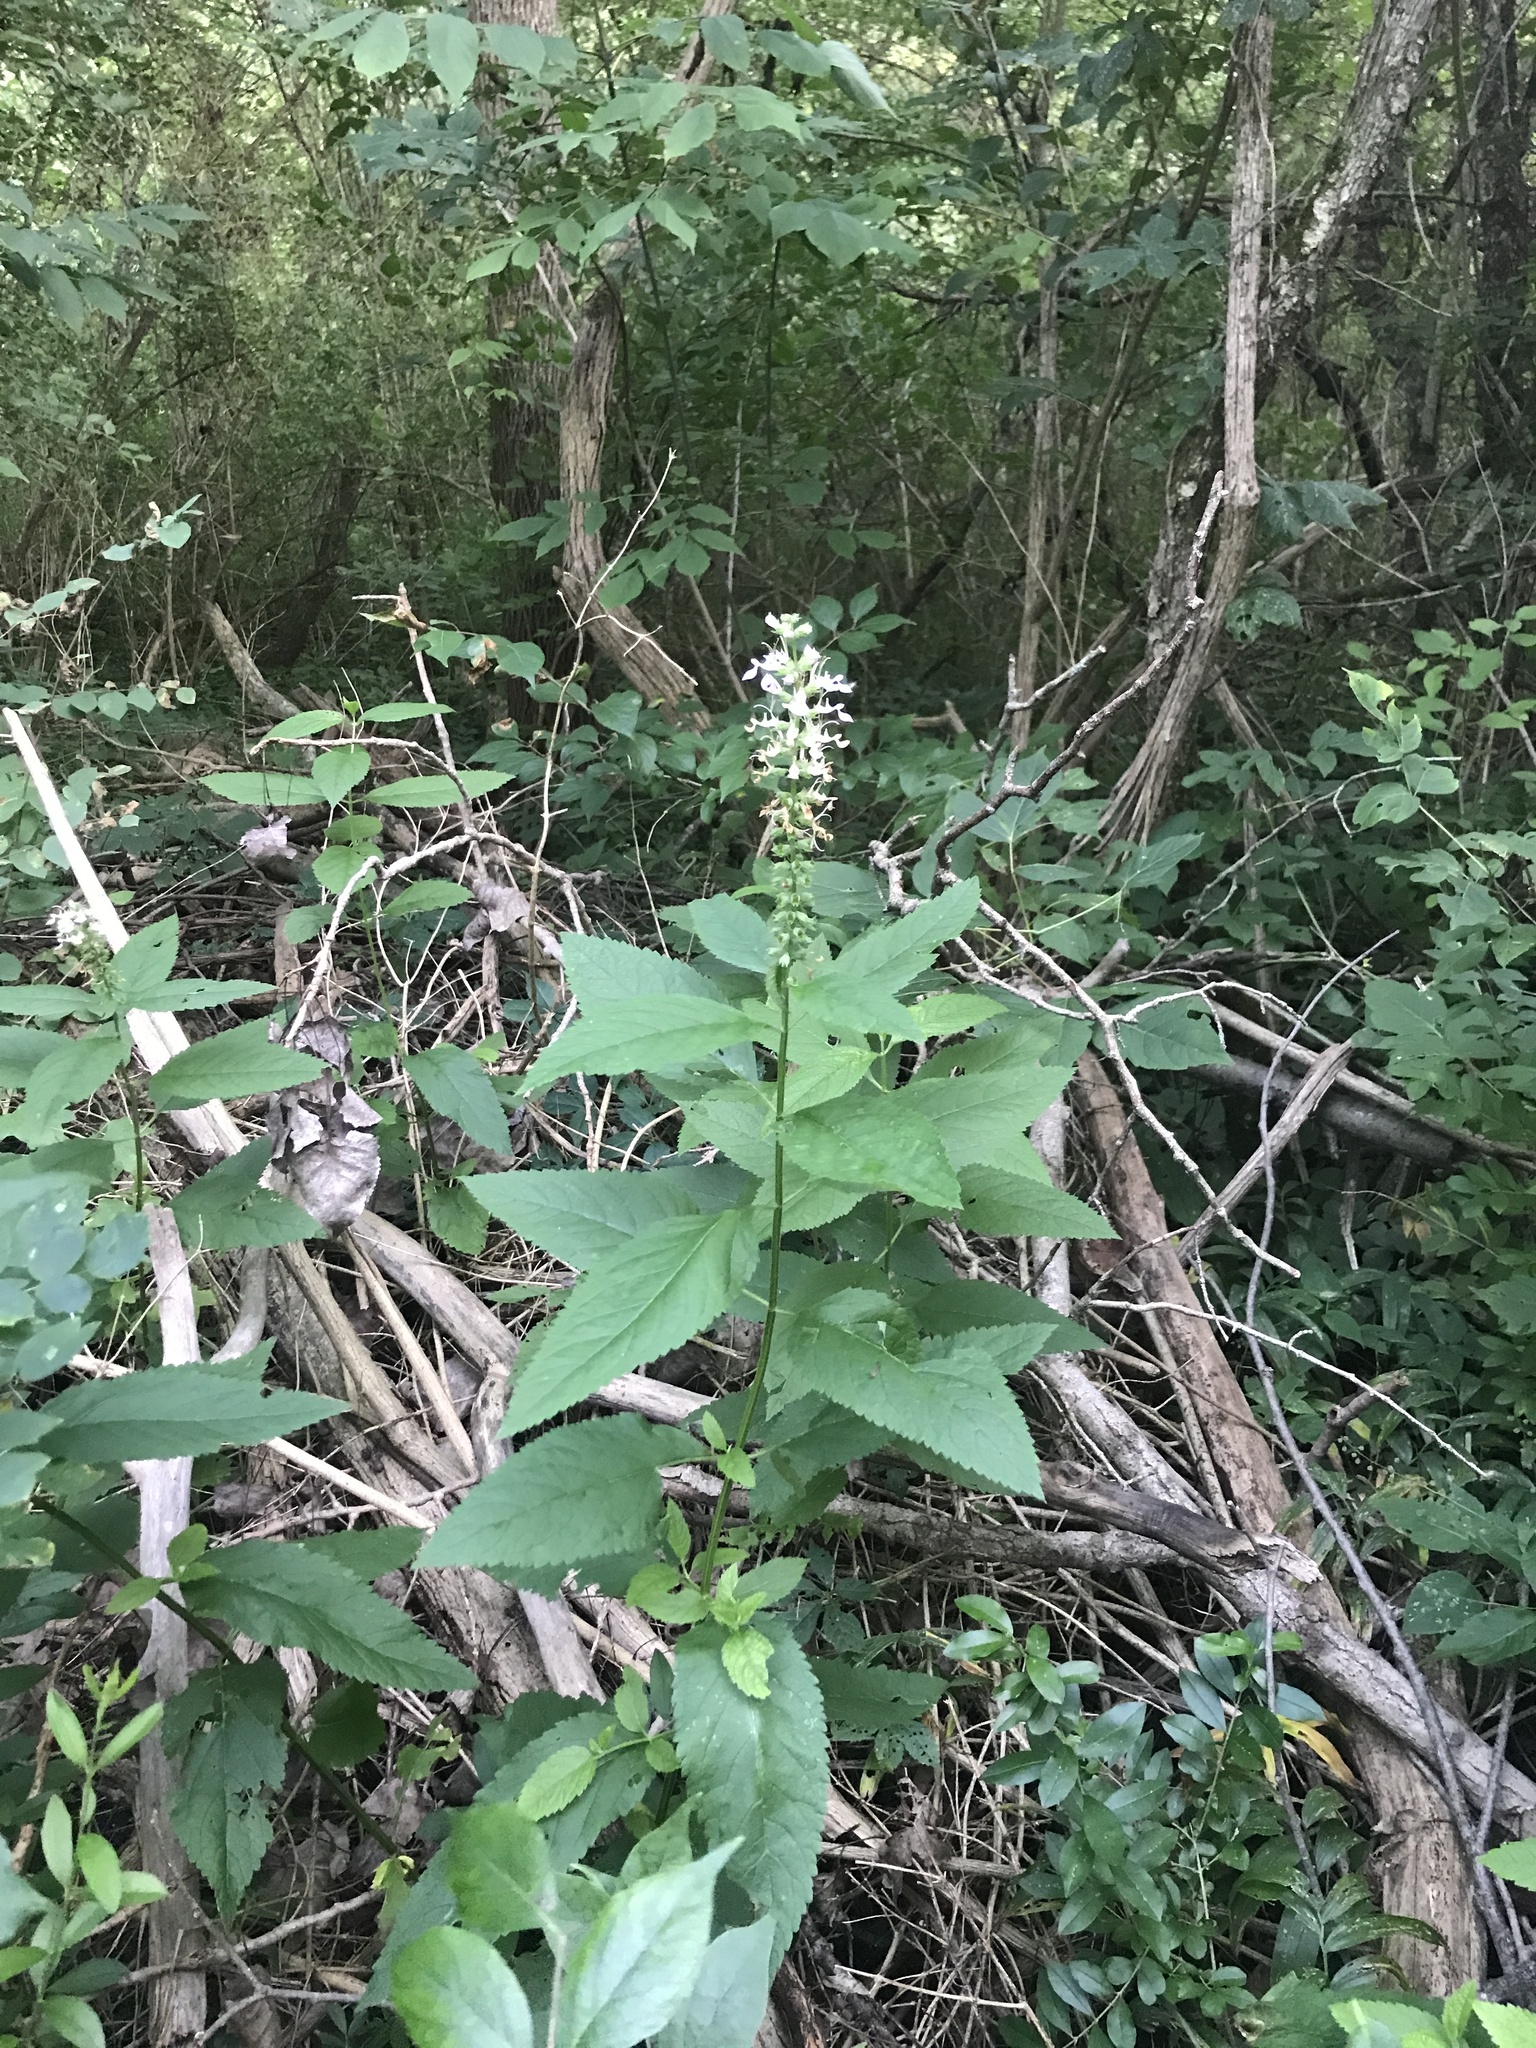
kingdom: Plantae
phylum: Tracheophyta
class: Magnoliopsida
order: Lamiales
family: Lamiaceae
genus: Teucrium
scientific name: Teucrium canadense
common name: American germander
